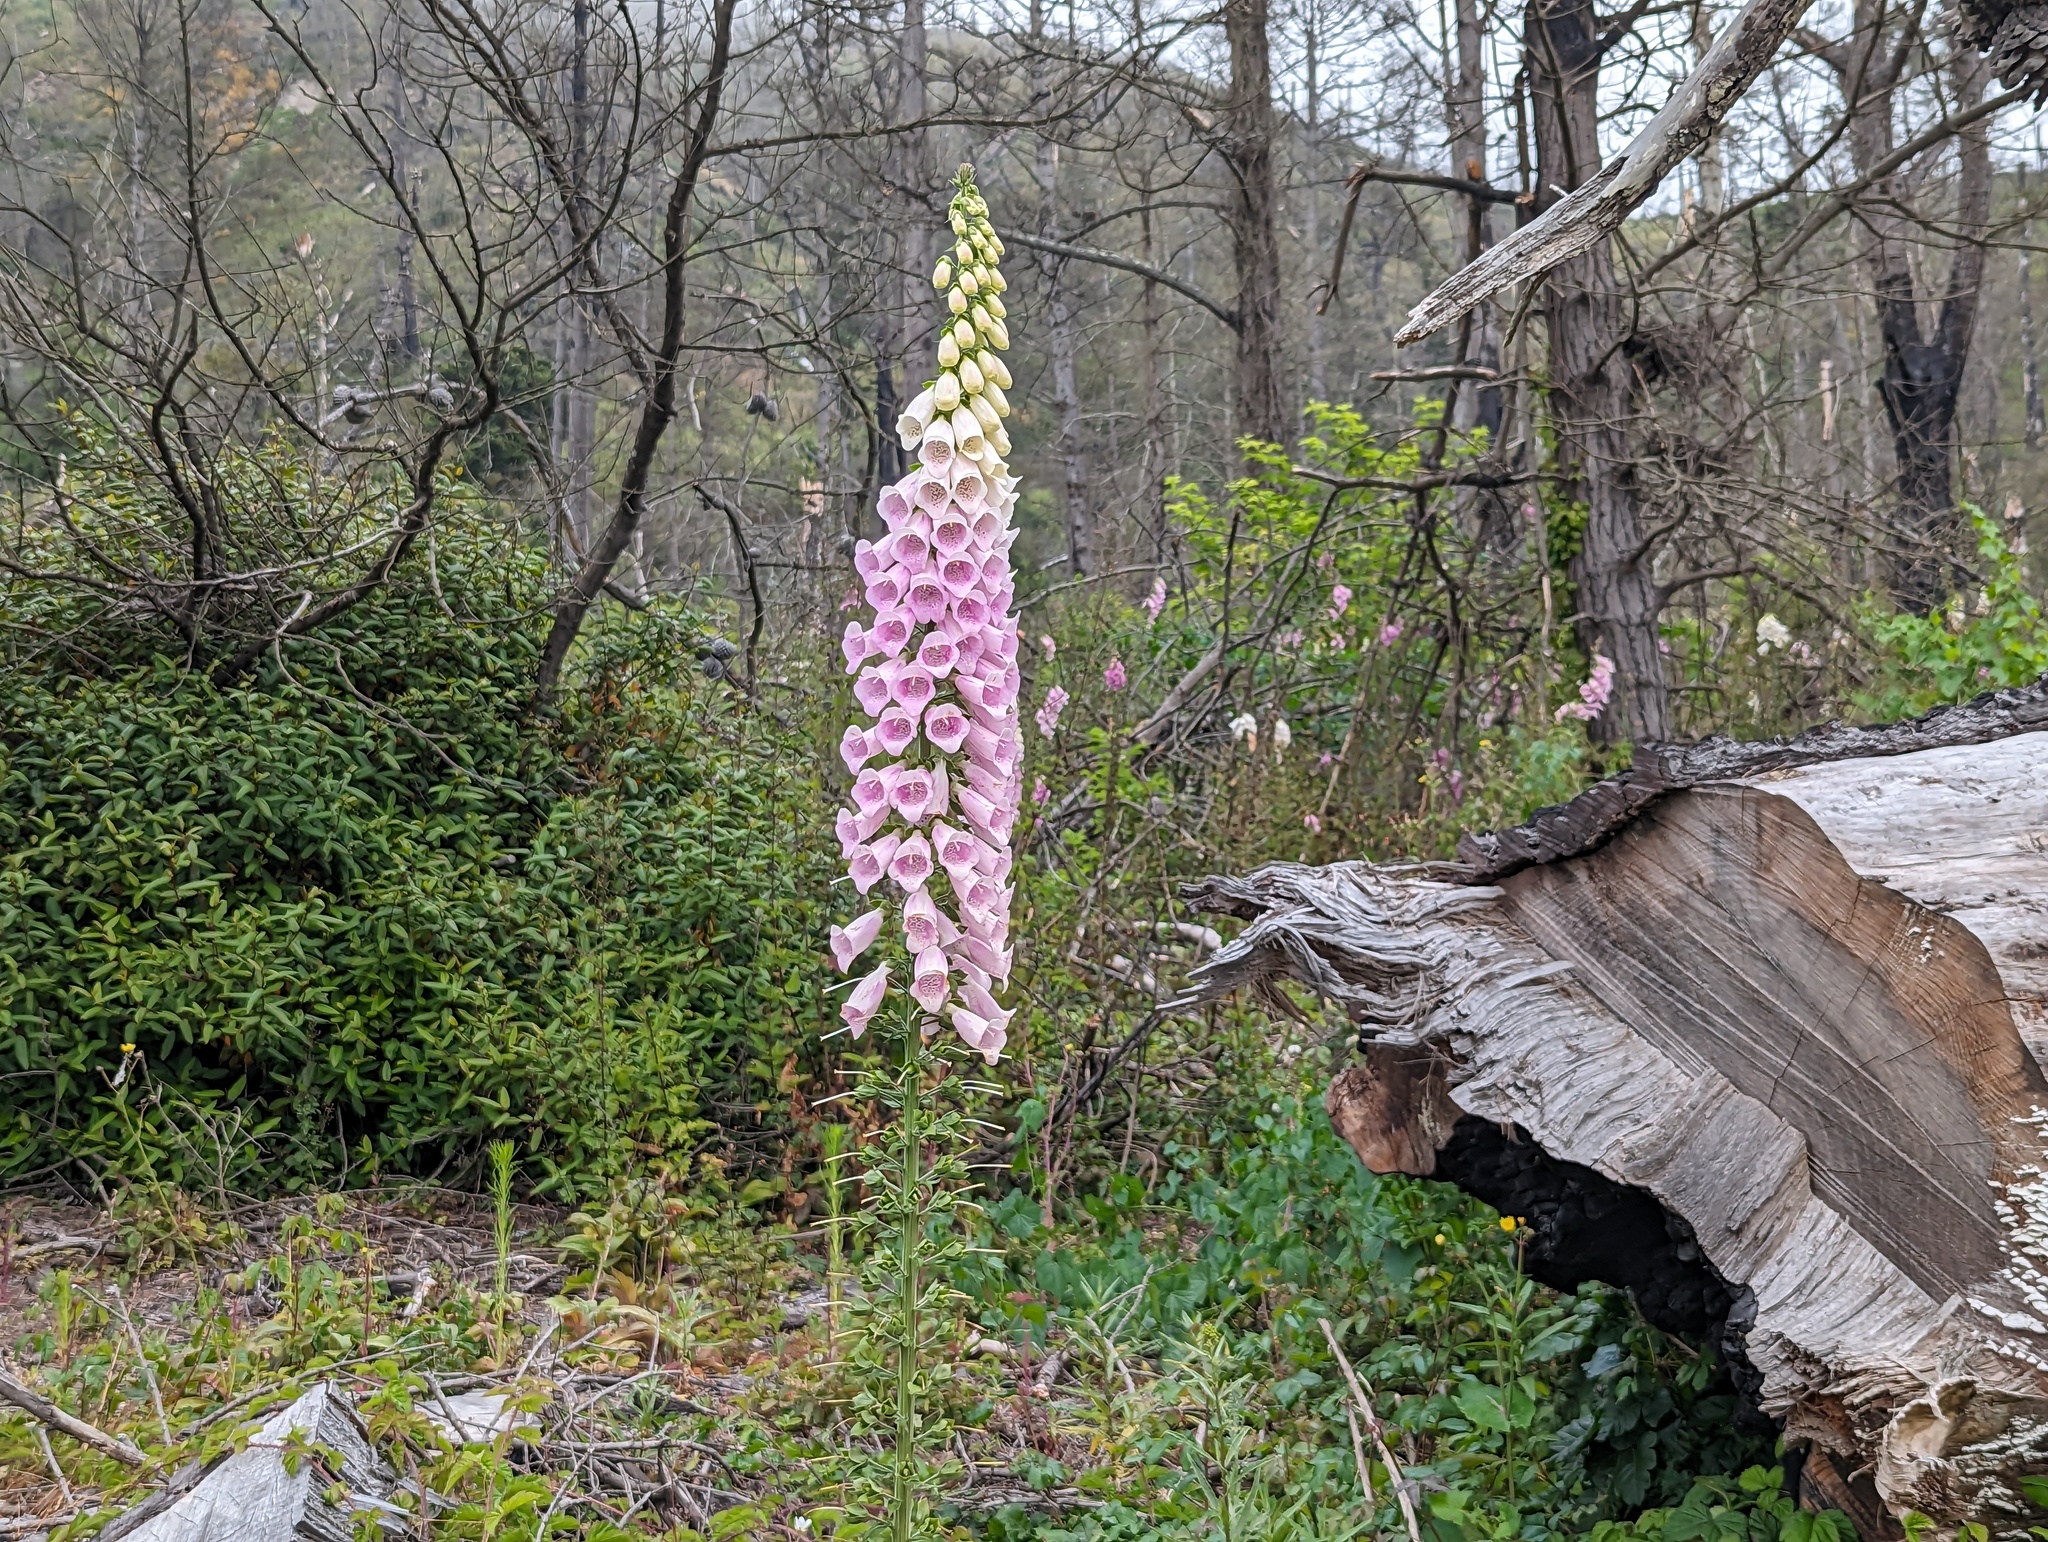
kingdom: Plantae
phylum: Tracheophyta
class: Magnoliopsida
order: Lamiales
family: Plantaginaceae
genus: Digitalis
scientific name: Digitalis purpurea
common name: Foxglove
